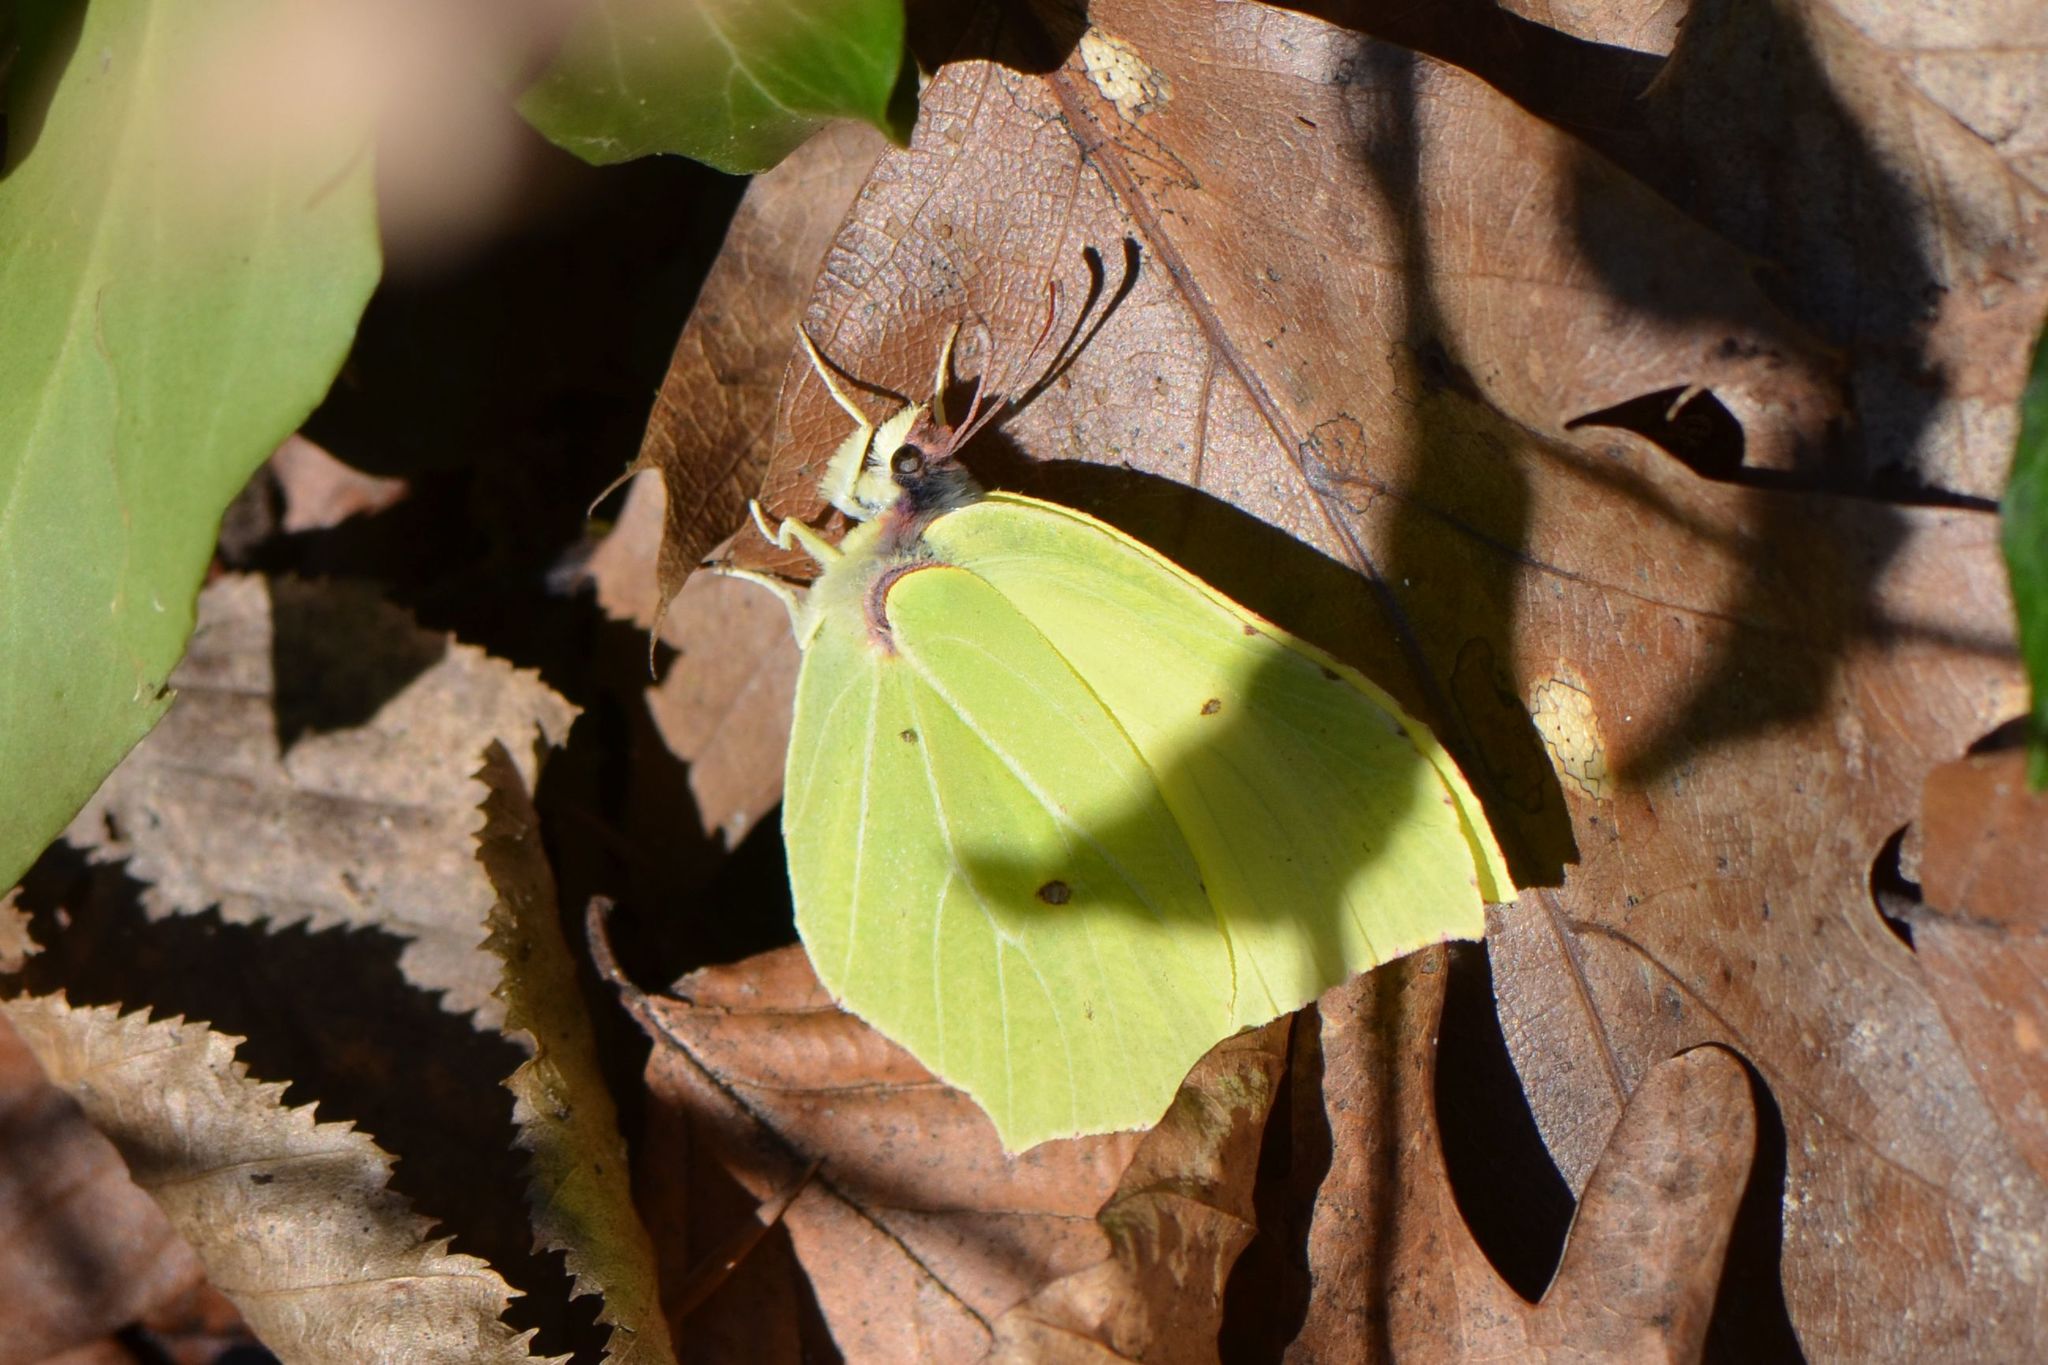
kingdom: Animalia
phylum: Arthropoda
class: Insecta
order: Lepidoptera
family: Pieridae
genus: Gonepteryx
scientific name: Gonepteryx rhamni
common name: Brimstone
